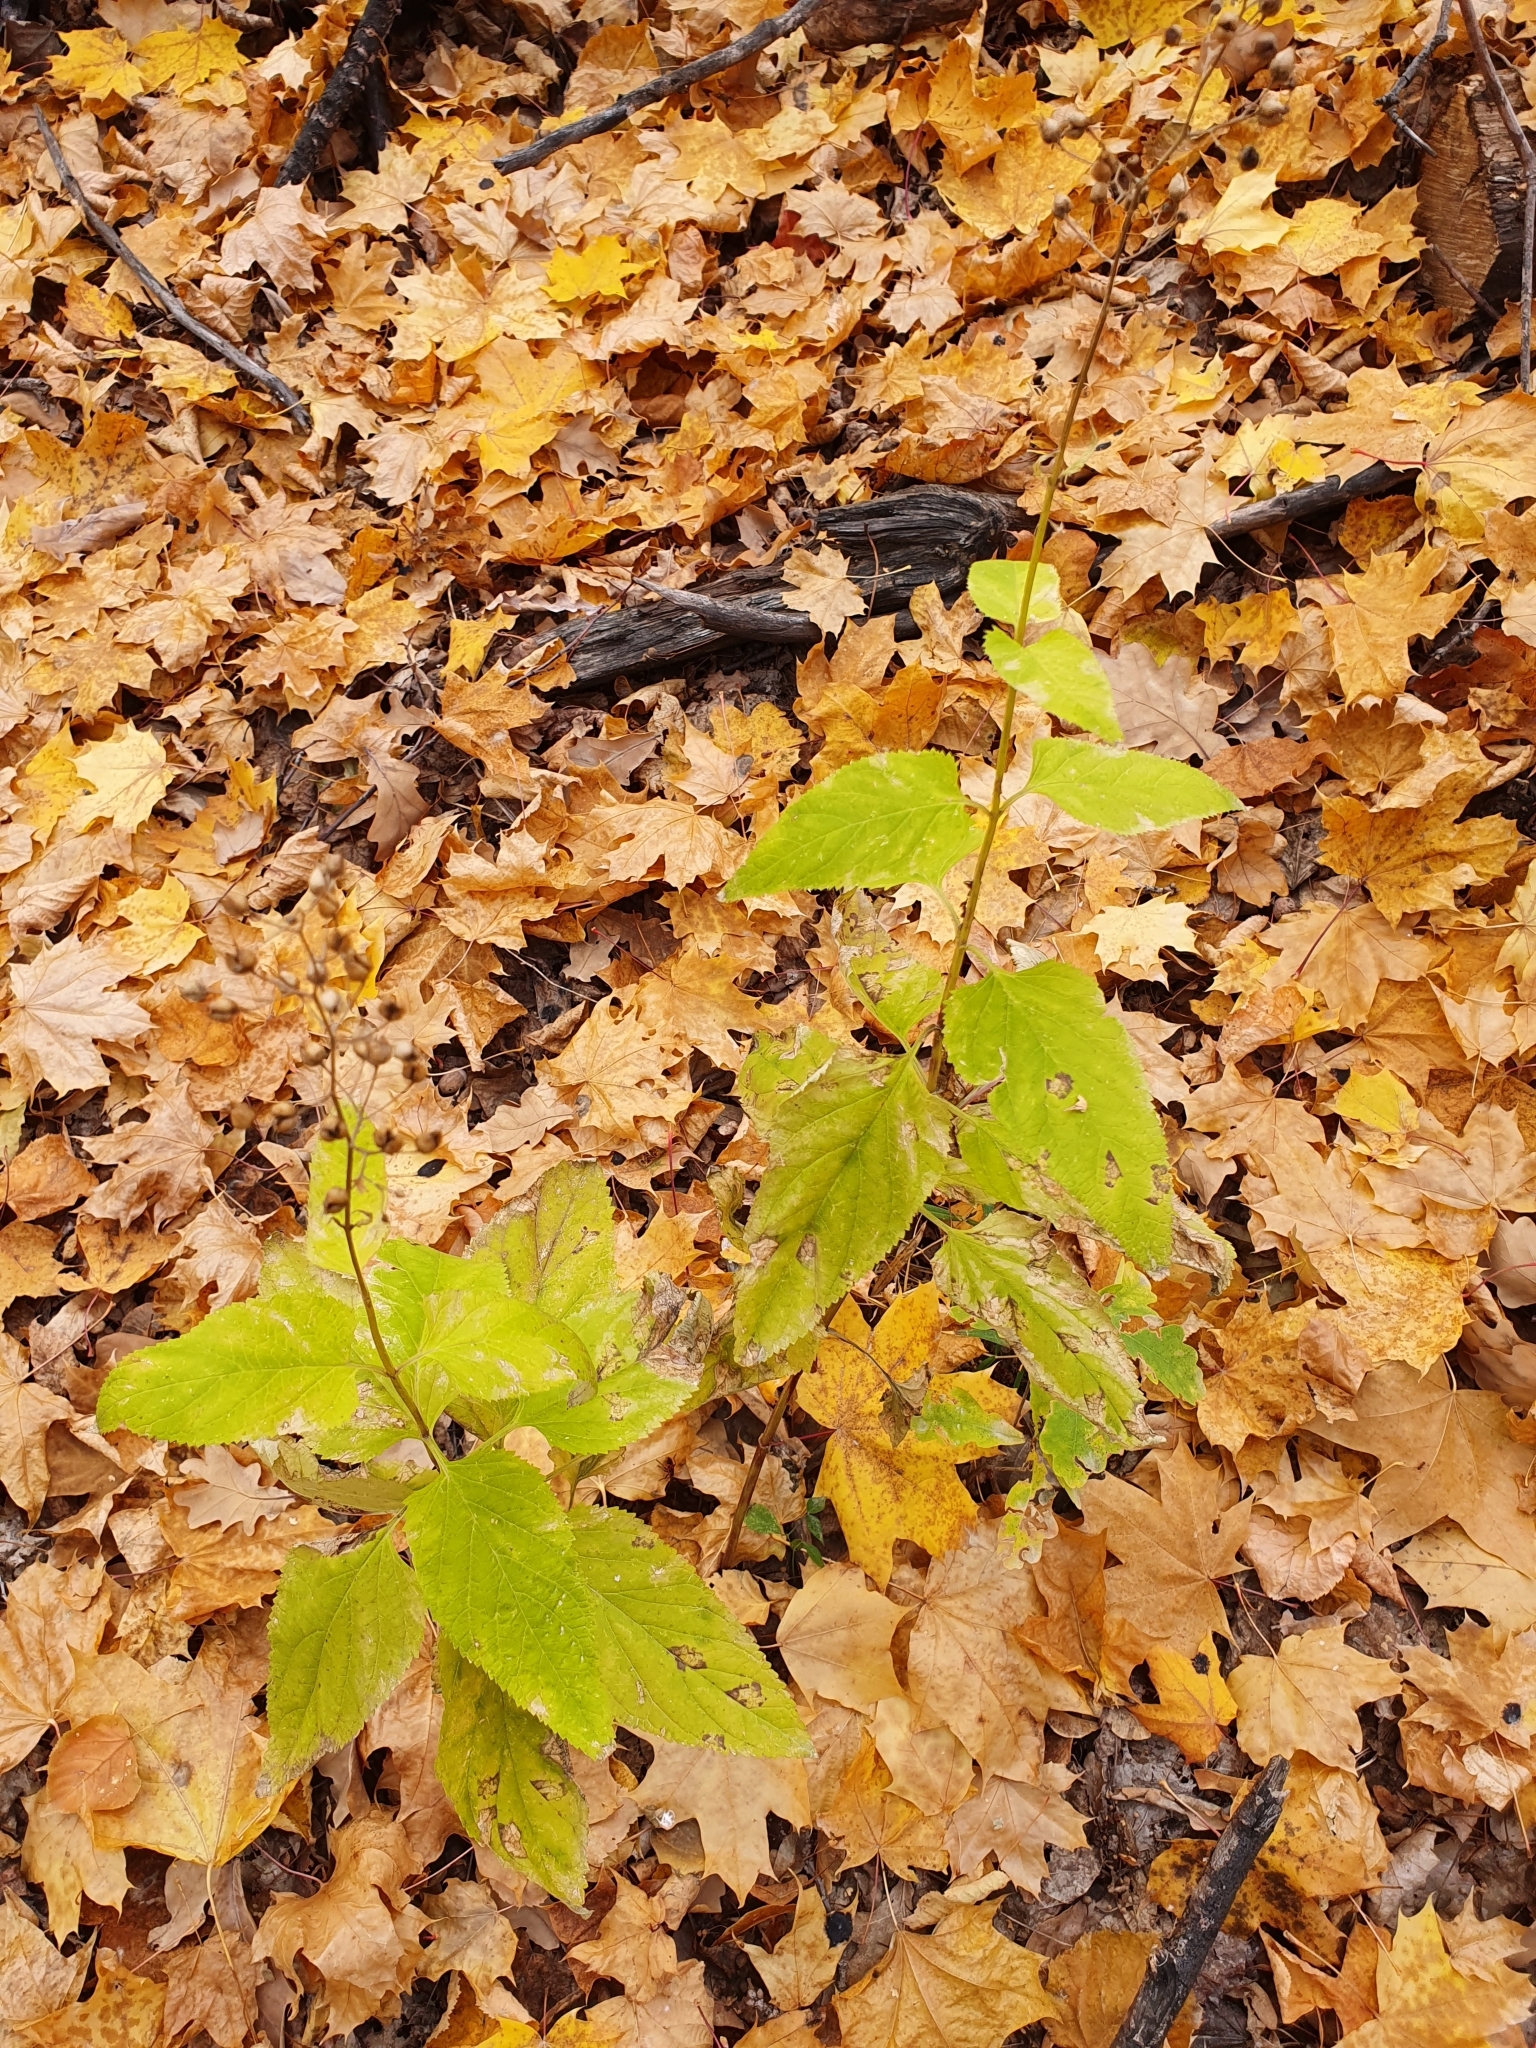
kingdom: Plantae
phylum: Tracheophyta
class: Magnoliopsida
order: Lamiales
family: Scrophulariaceae
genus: Scrophularia
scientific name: Scrophularia nodosa
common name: Common figwort
